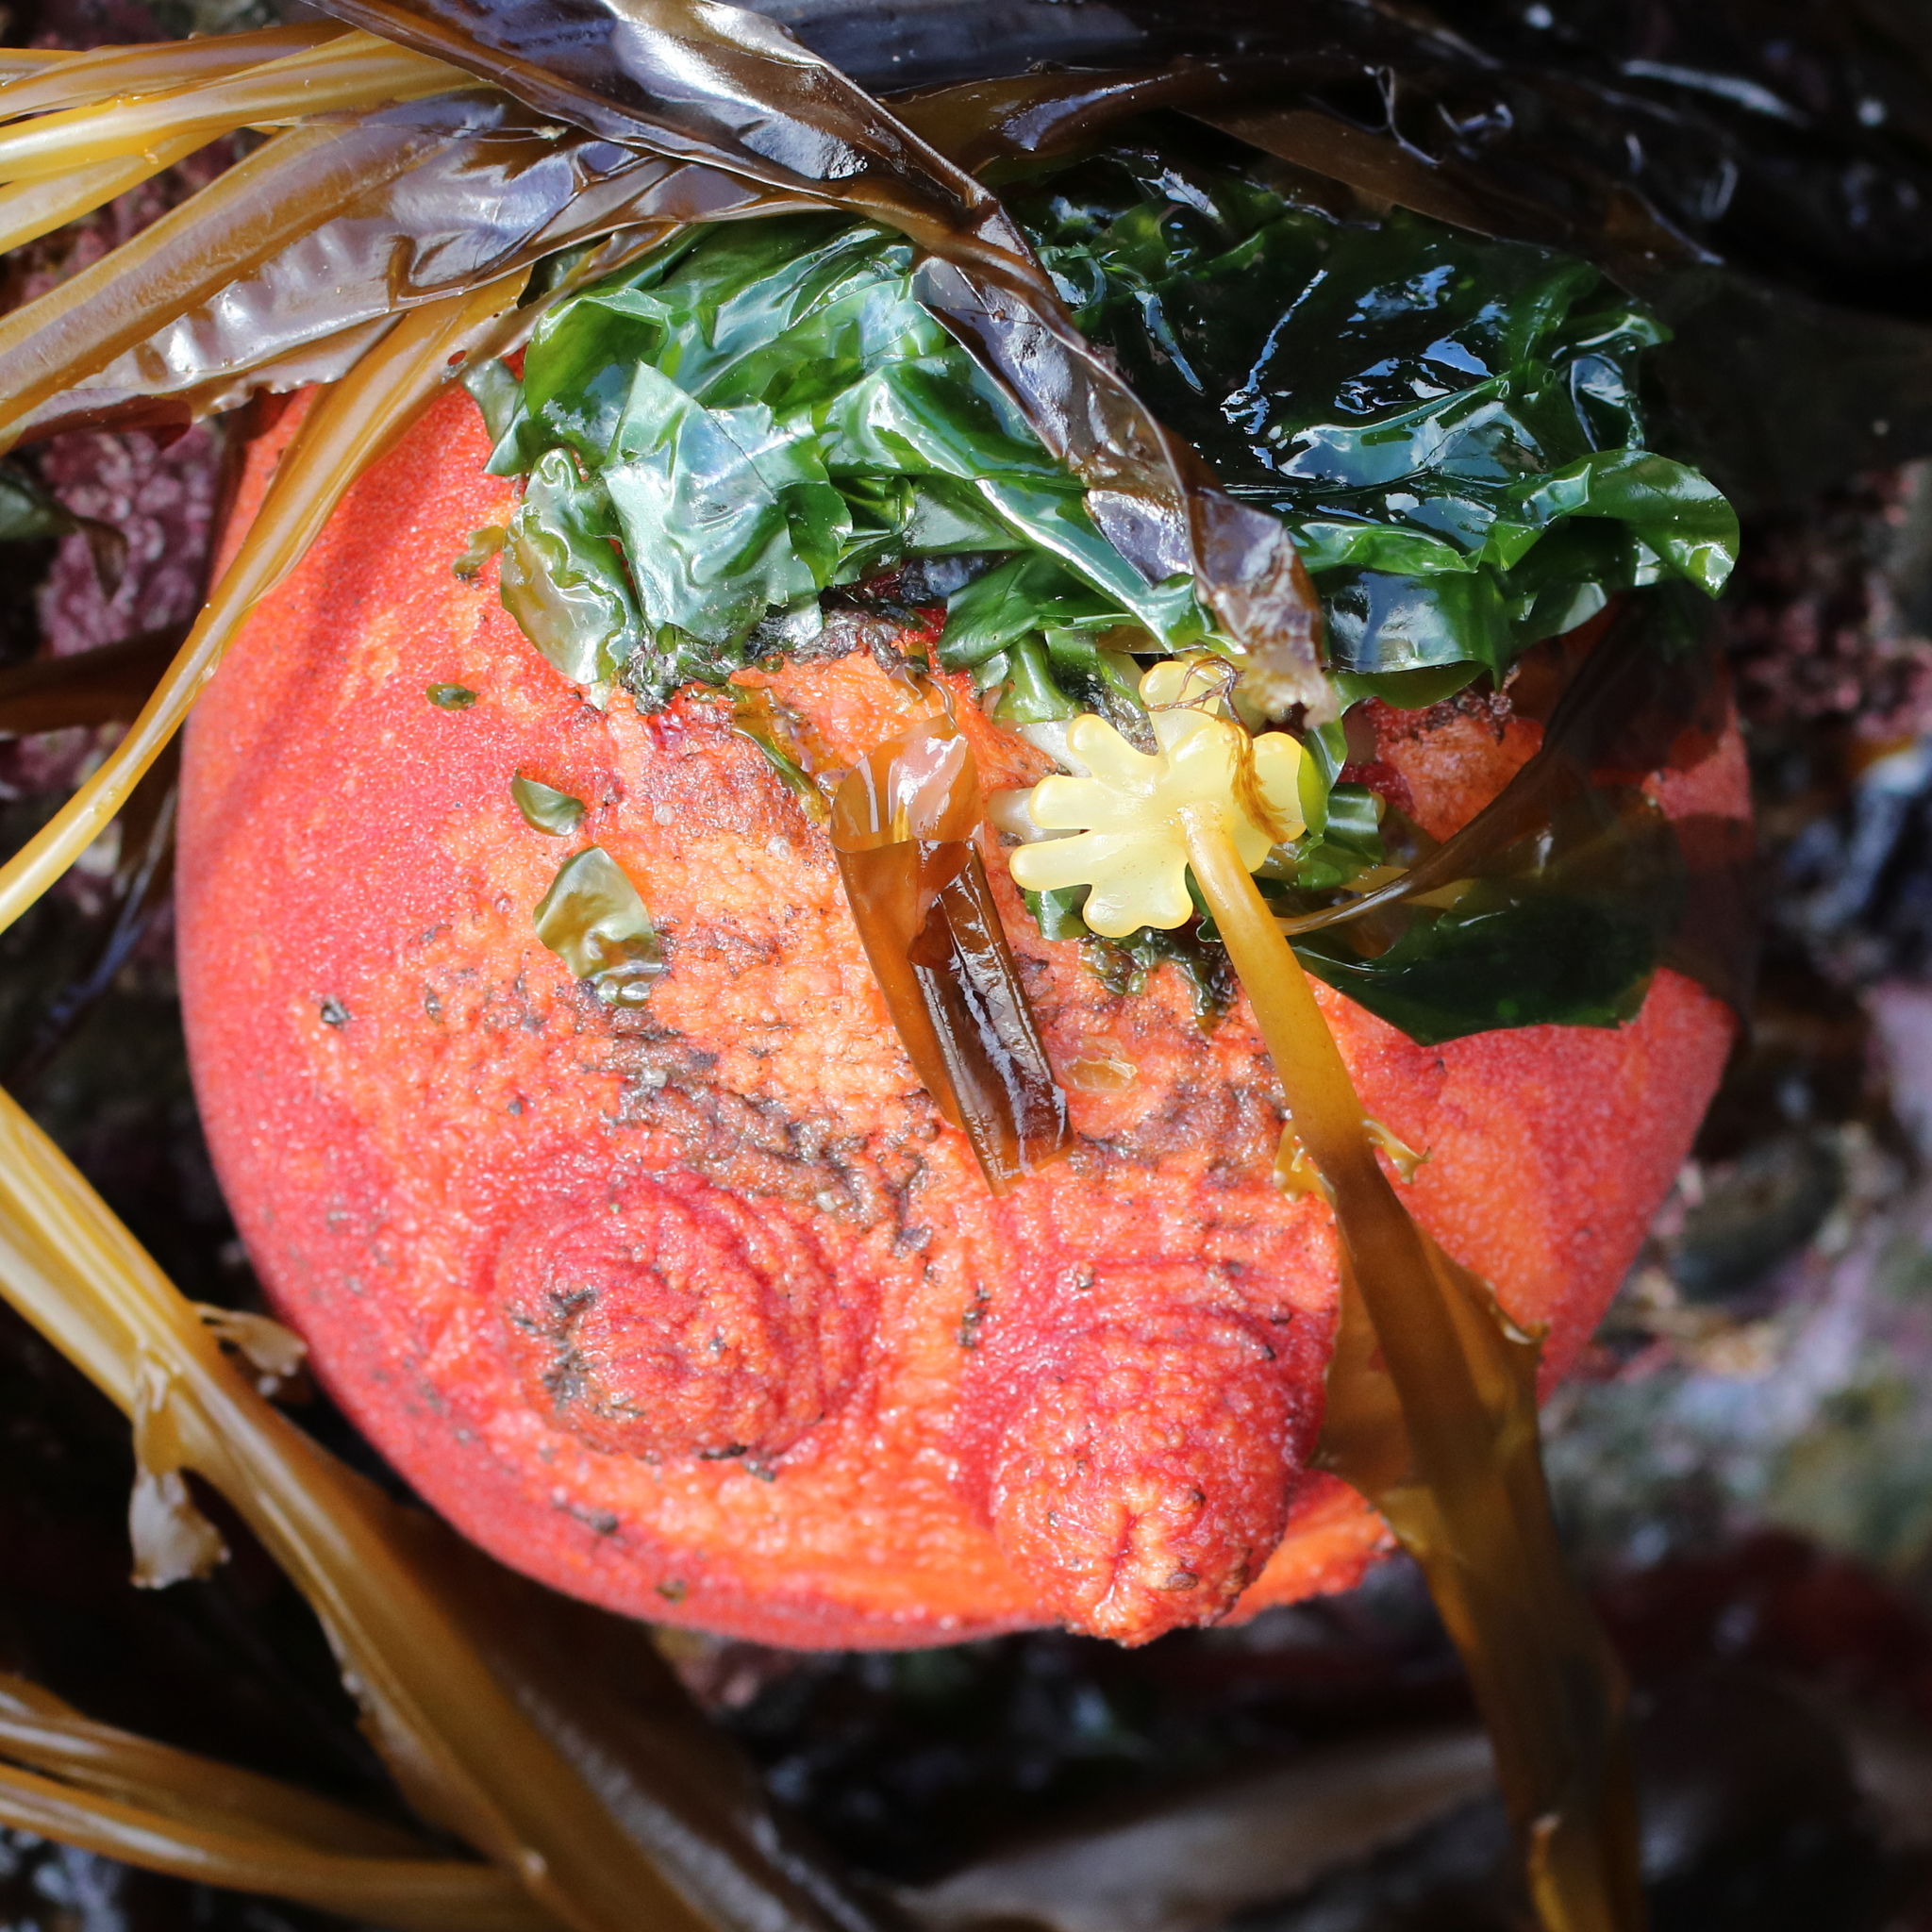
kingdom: Animalia
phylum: Chordata
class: Ascidiacea
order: Stolidobranchia
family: Pyuridae
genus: Halocynthia
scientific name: Halocynthia aurantium
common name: Sea peach
